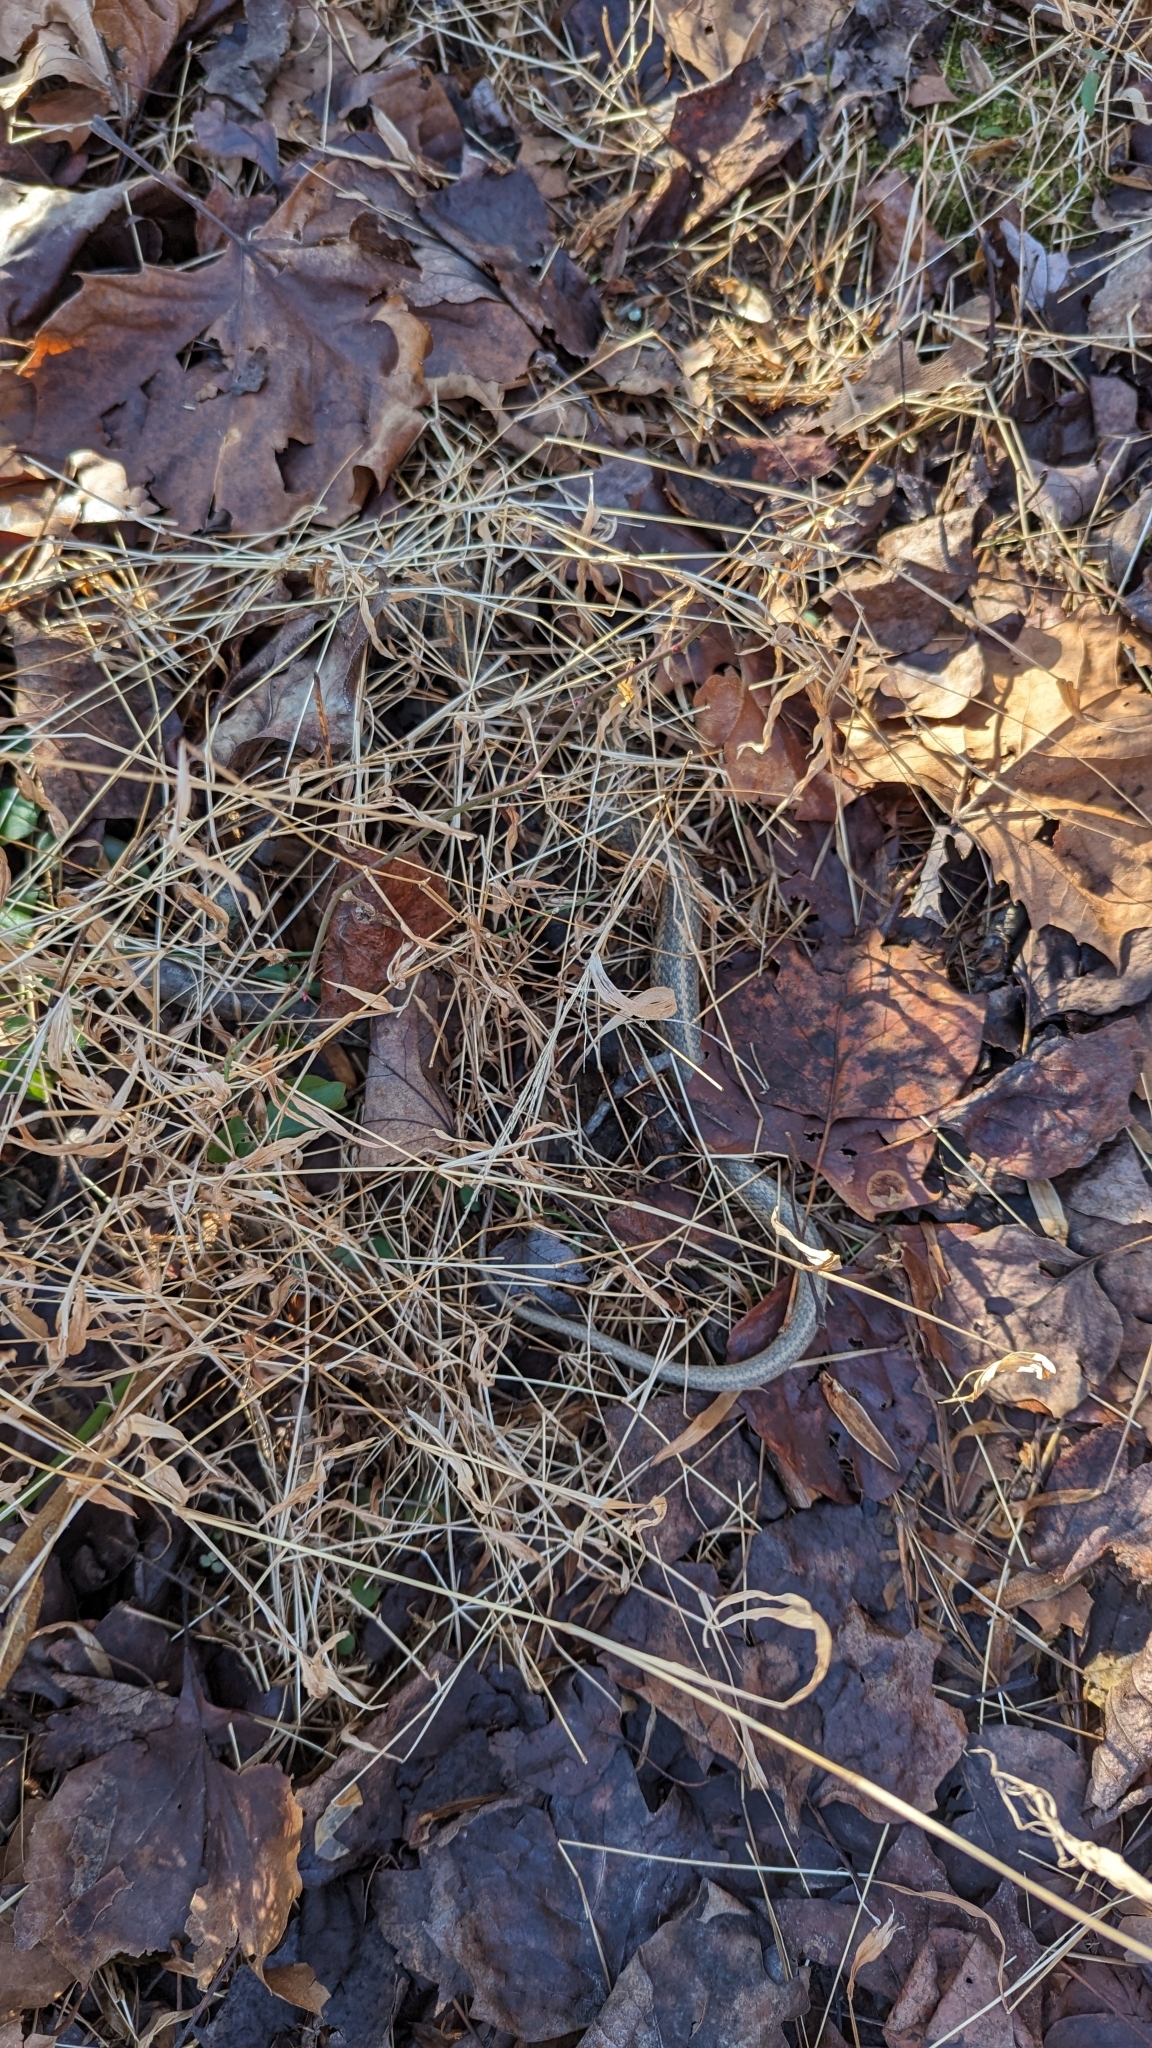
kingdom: Animalia
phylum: Chordata
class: Squamata
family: Colubridae
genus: Thamnophis
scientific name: Thamnophis sirtalis
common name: Common garter snake
